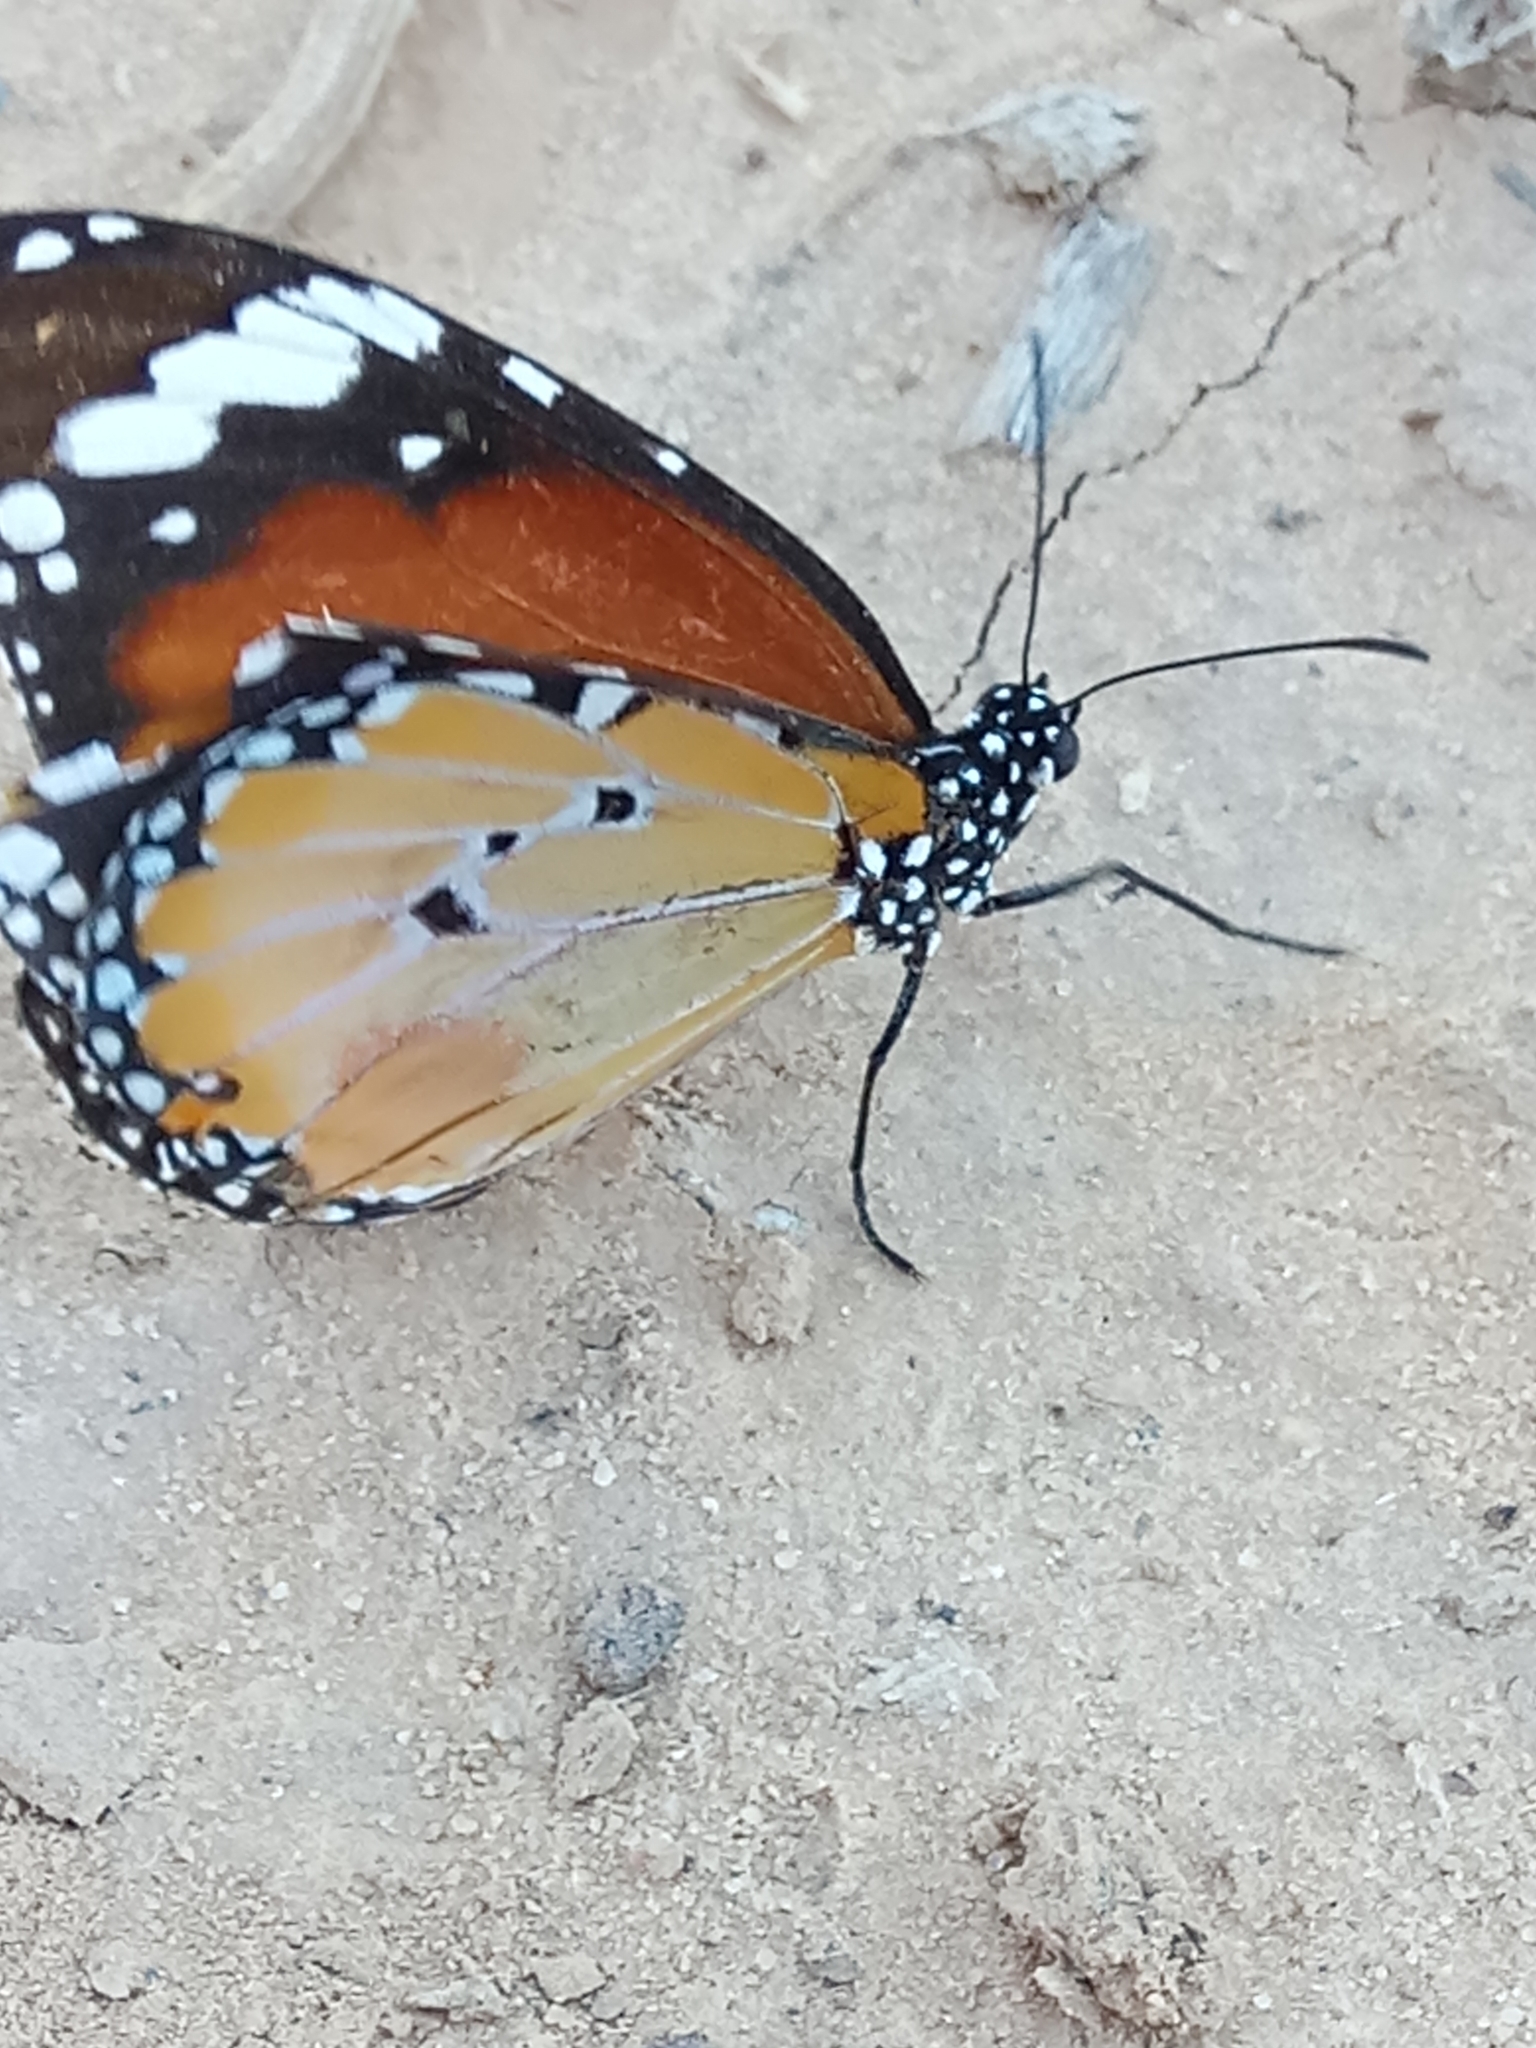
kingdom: Animalia
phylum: Arthropoda
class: Insecta
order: Lepidoptera
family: Nymphalidae
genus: Danaus
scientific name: Danaus chrysippus
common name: Plain tiger
